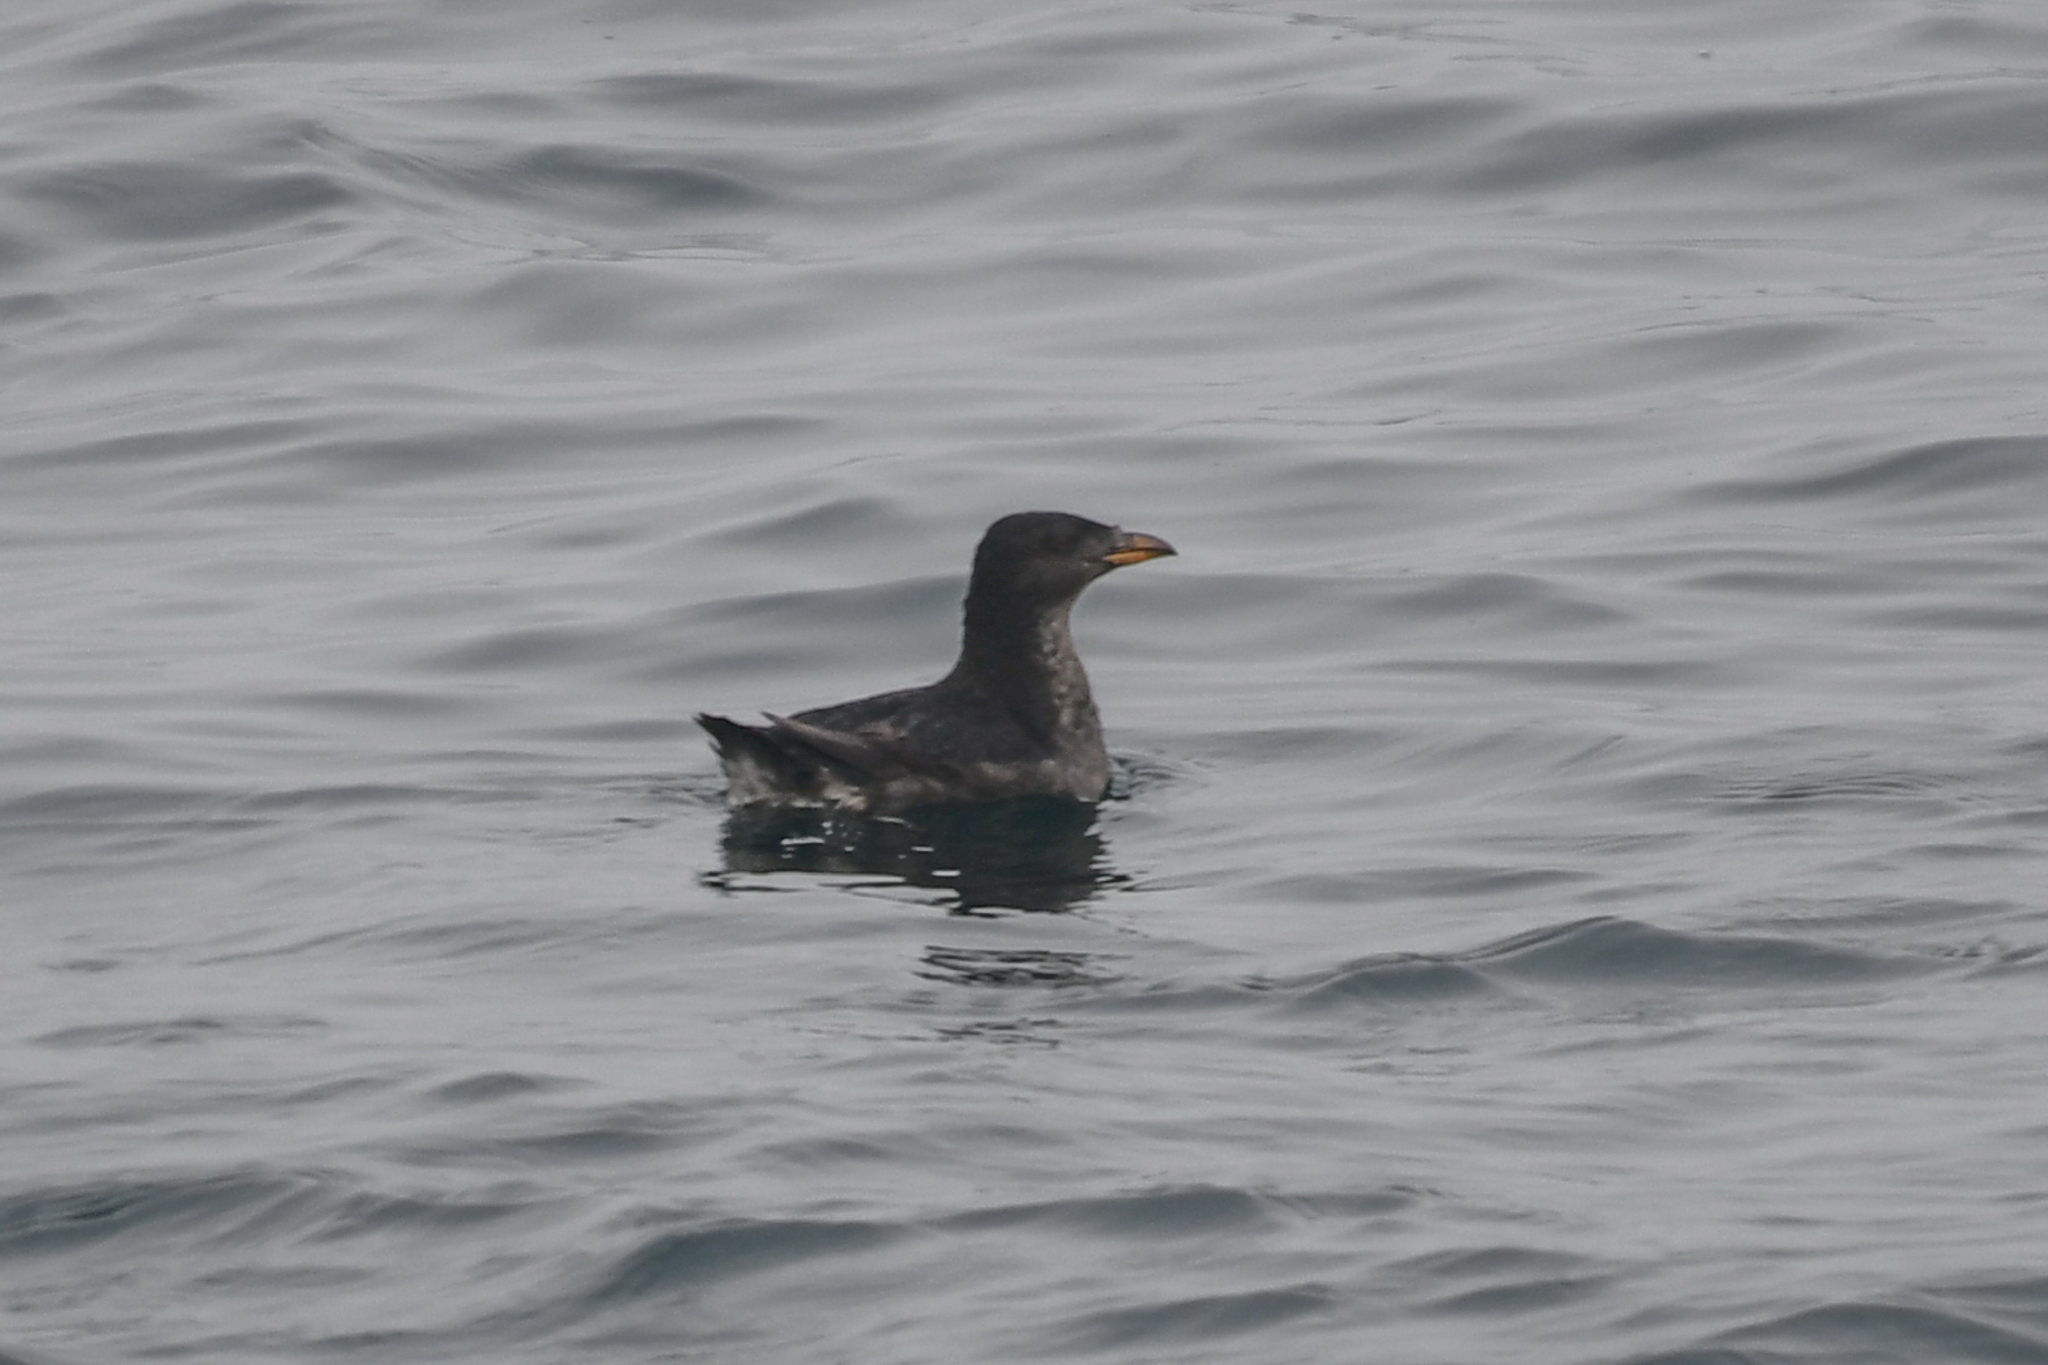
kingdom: Animalia
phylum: Chordata
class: Aves
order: Charadriiformes
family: Alcidae
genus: Cerorhinca
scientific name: Cerorhinca monocerata
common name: Rhinoceros auklet
